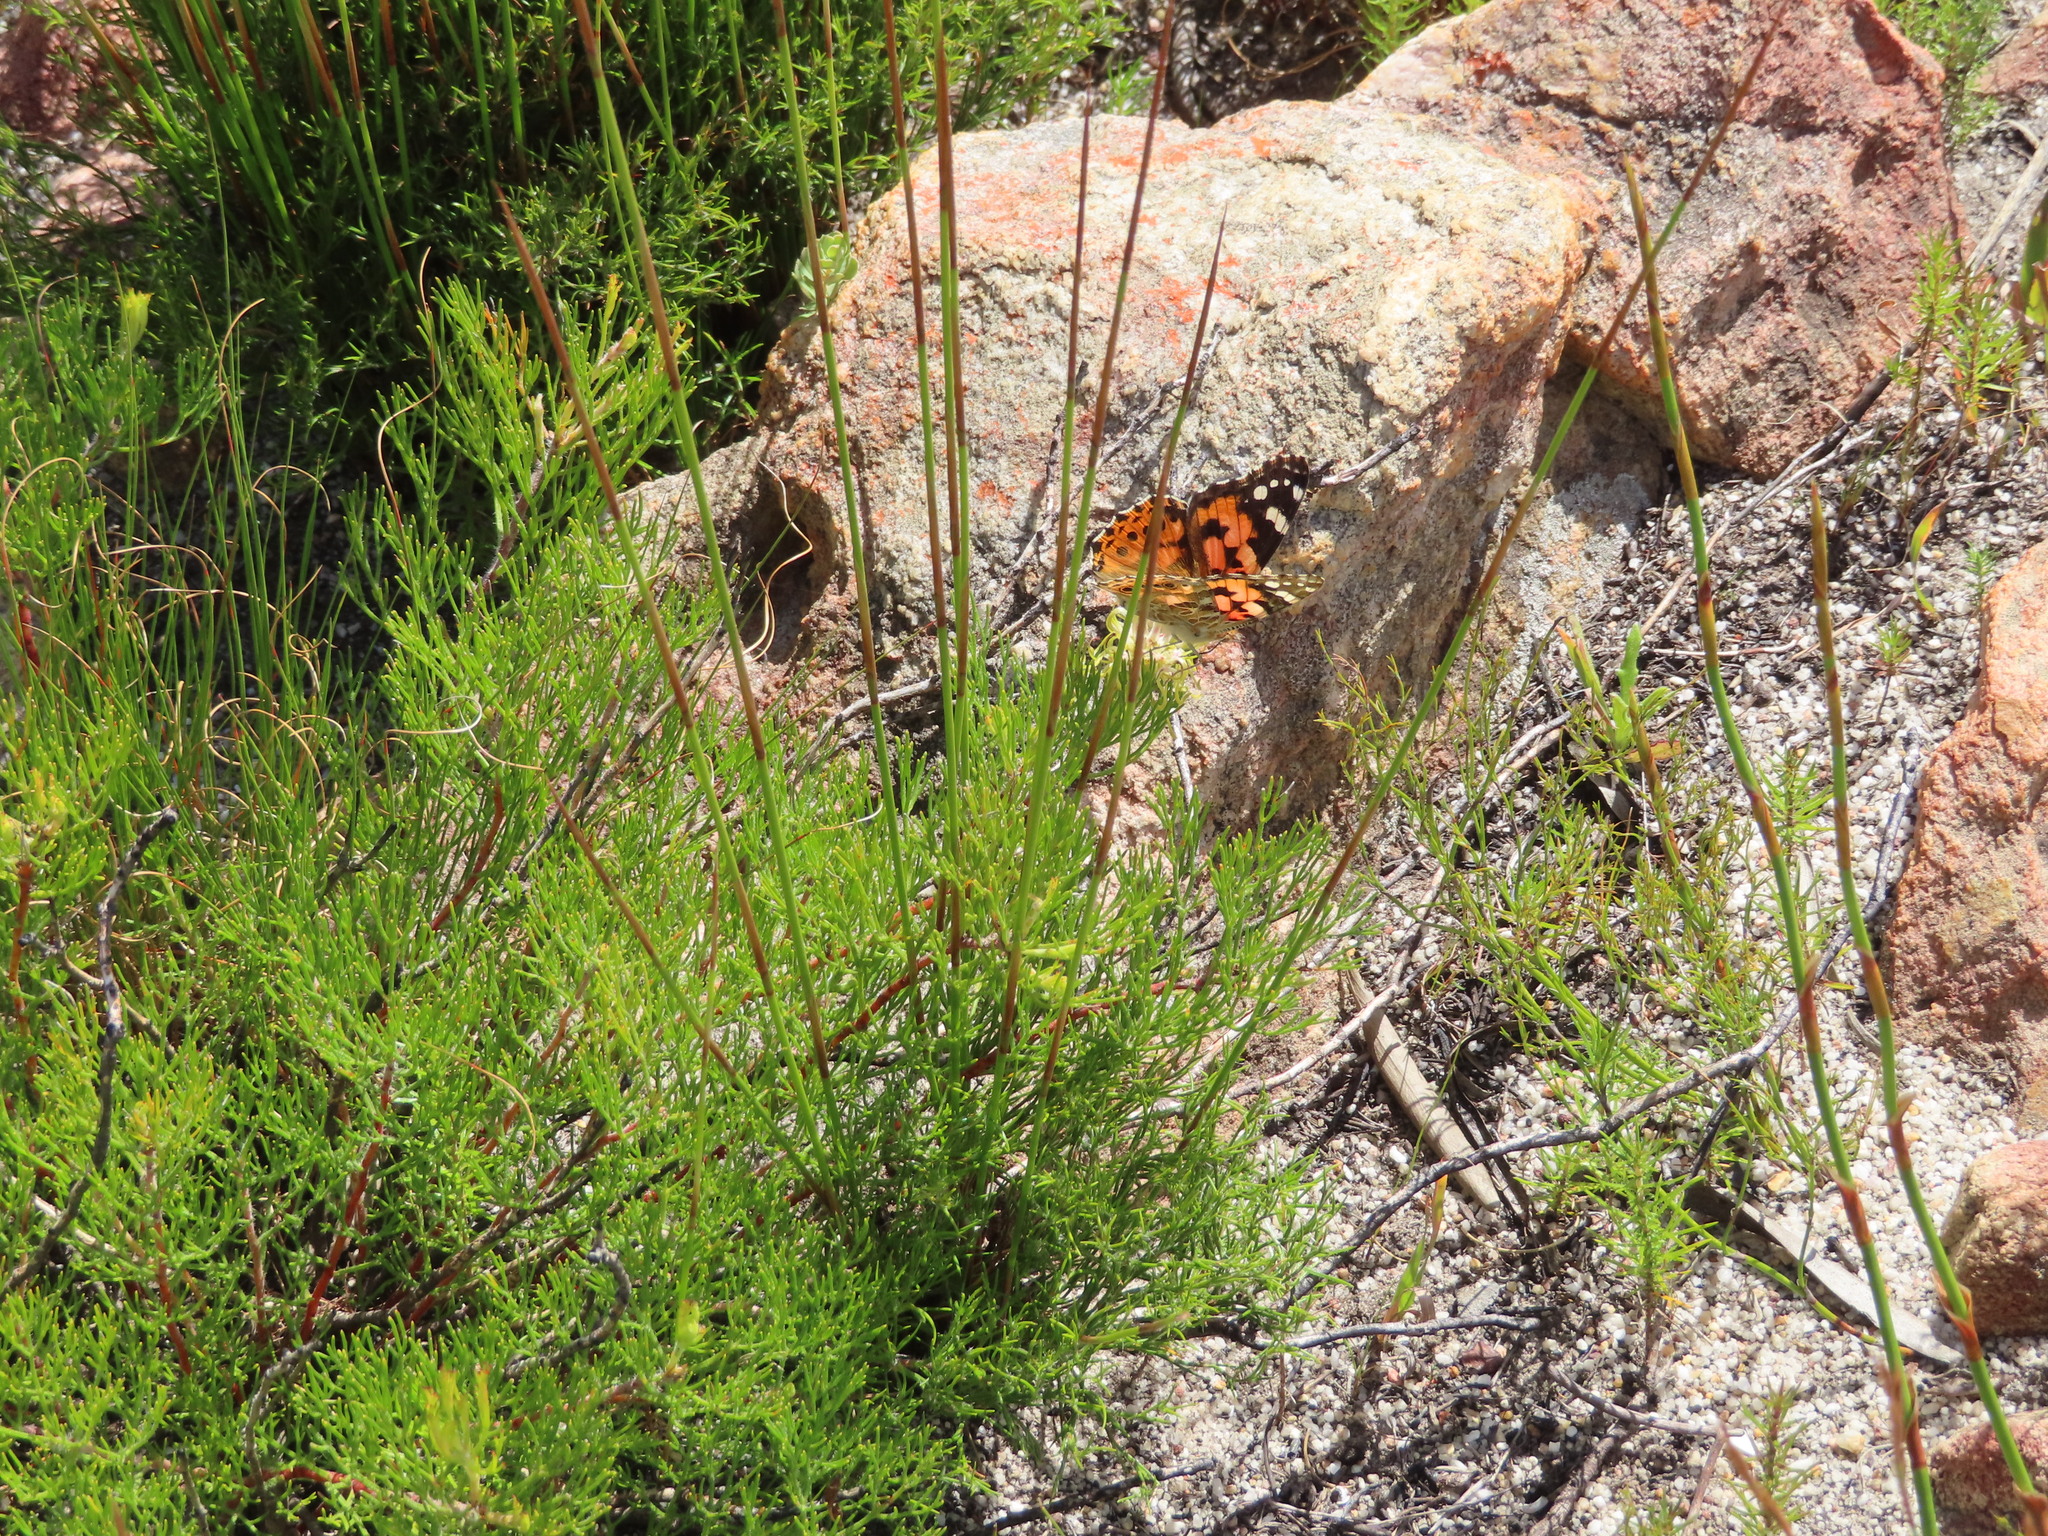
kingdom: Animalia
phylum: Arthropoda
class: Insecta
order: Lepidoptera
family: Nymphalidae
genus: Vanessa
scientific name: Vanessa cardui
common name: Painted lady
